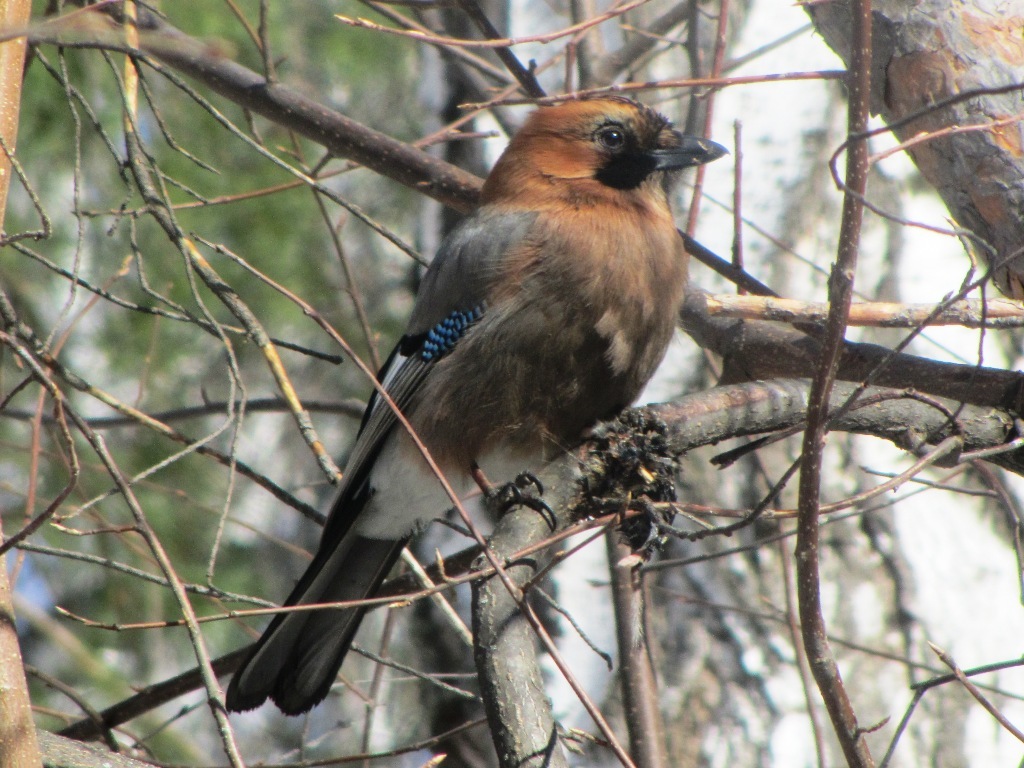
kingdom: Animalia
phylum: Chordata
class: Aves
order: Passeriformes
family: Corvidae
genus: Garrulus
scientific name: Garrulus glandarius
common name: Eurasian jay
